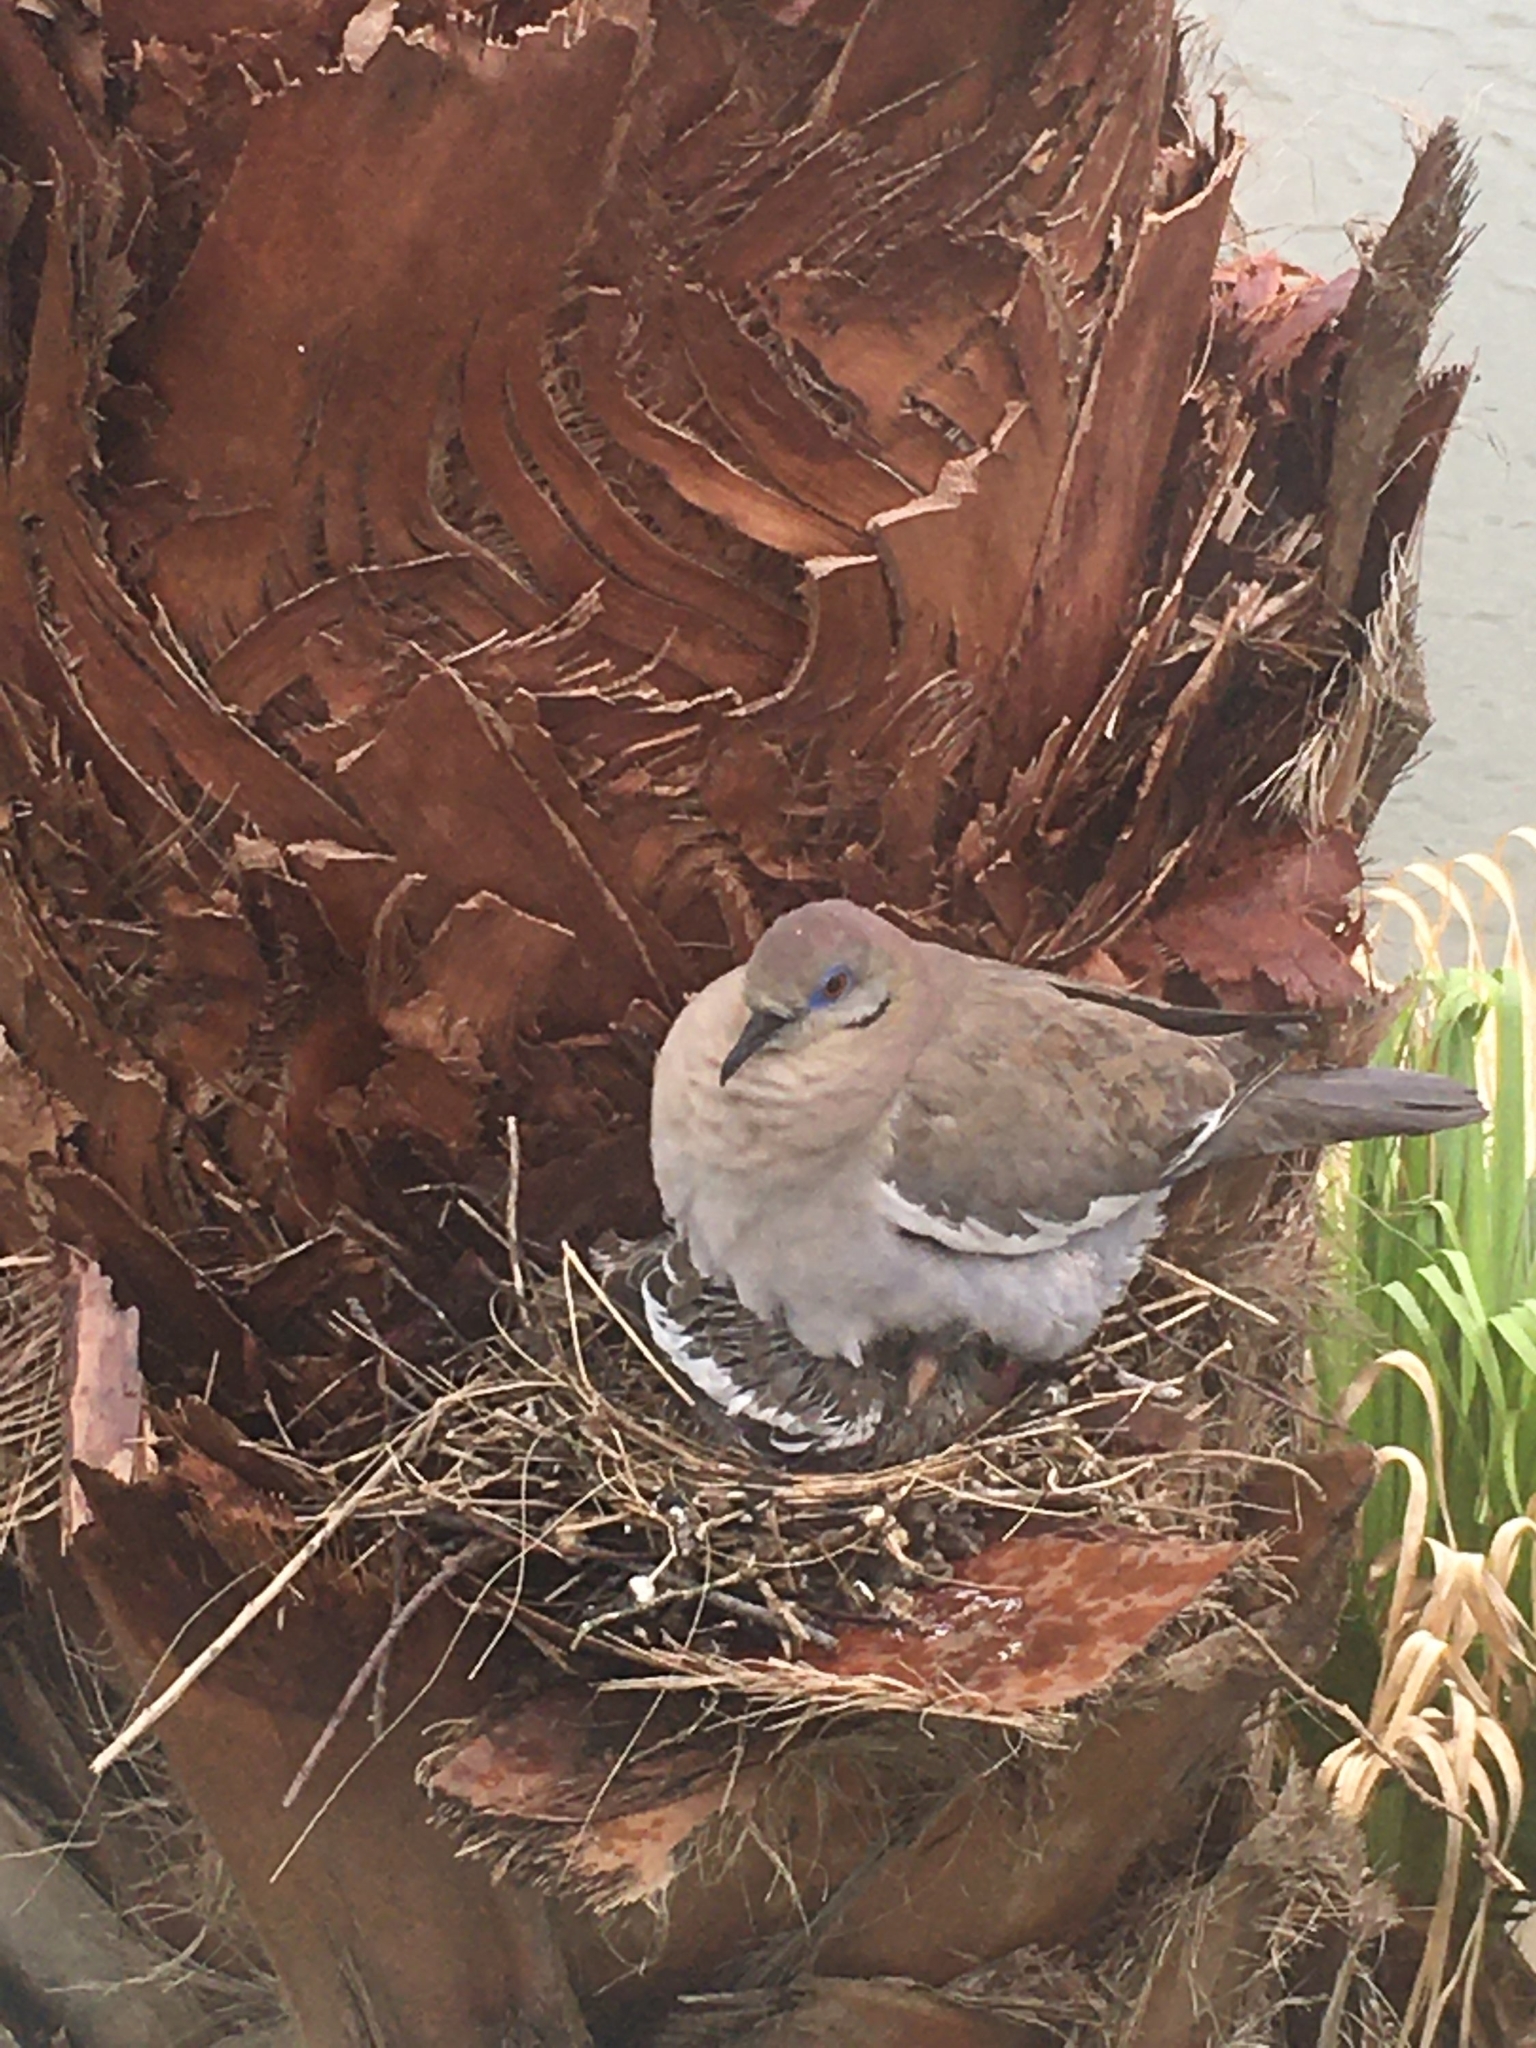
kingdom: Animalia
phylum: Chordata
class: Aves
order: Columbiformes
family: Columbidae
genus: Zenaida
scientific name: Zenaida asiatica
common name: White-winged dove
